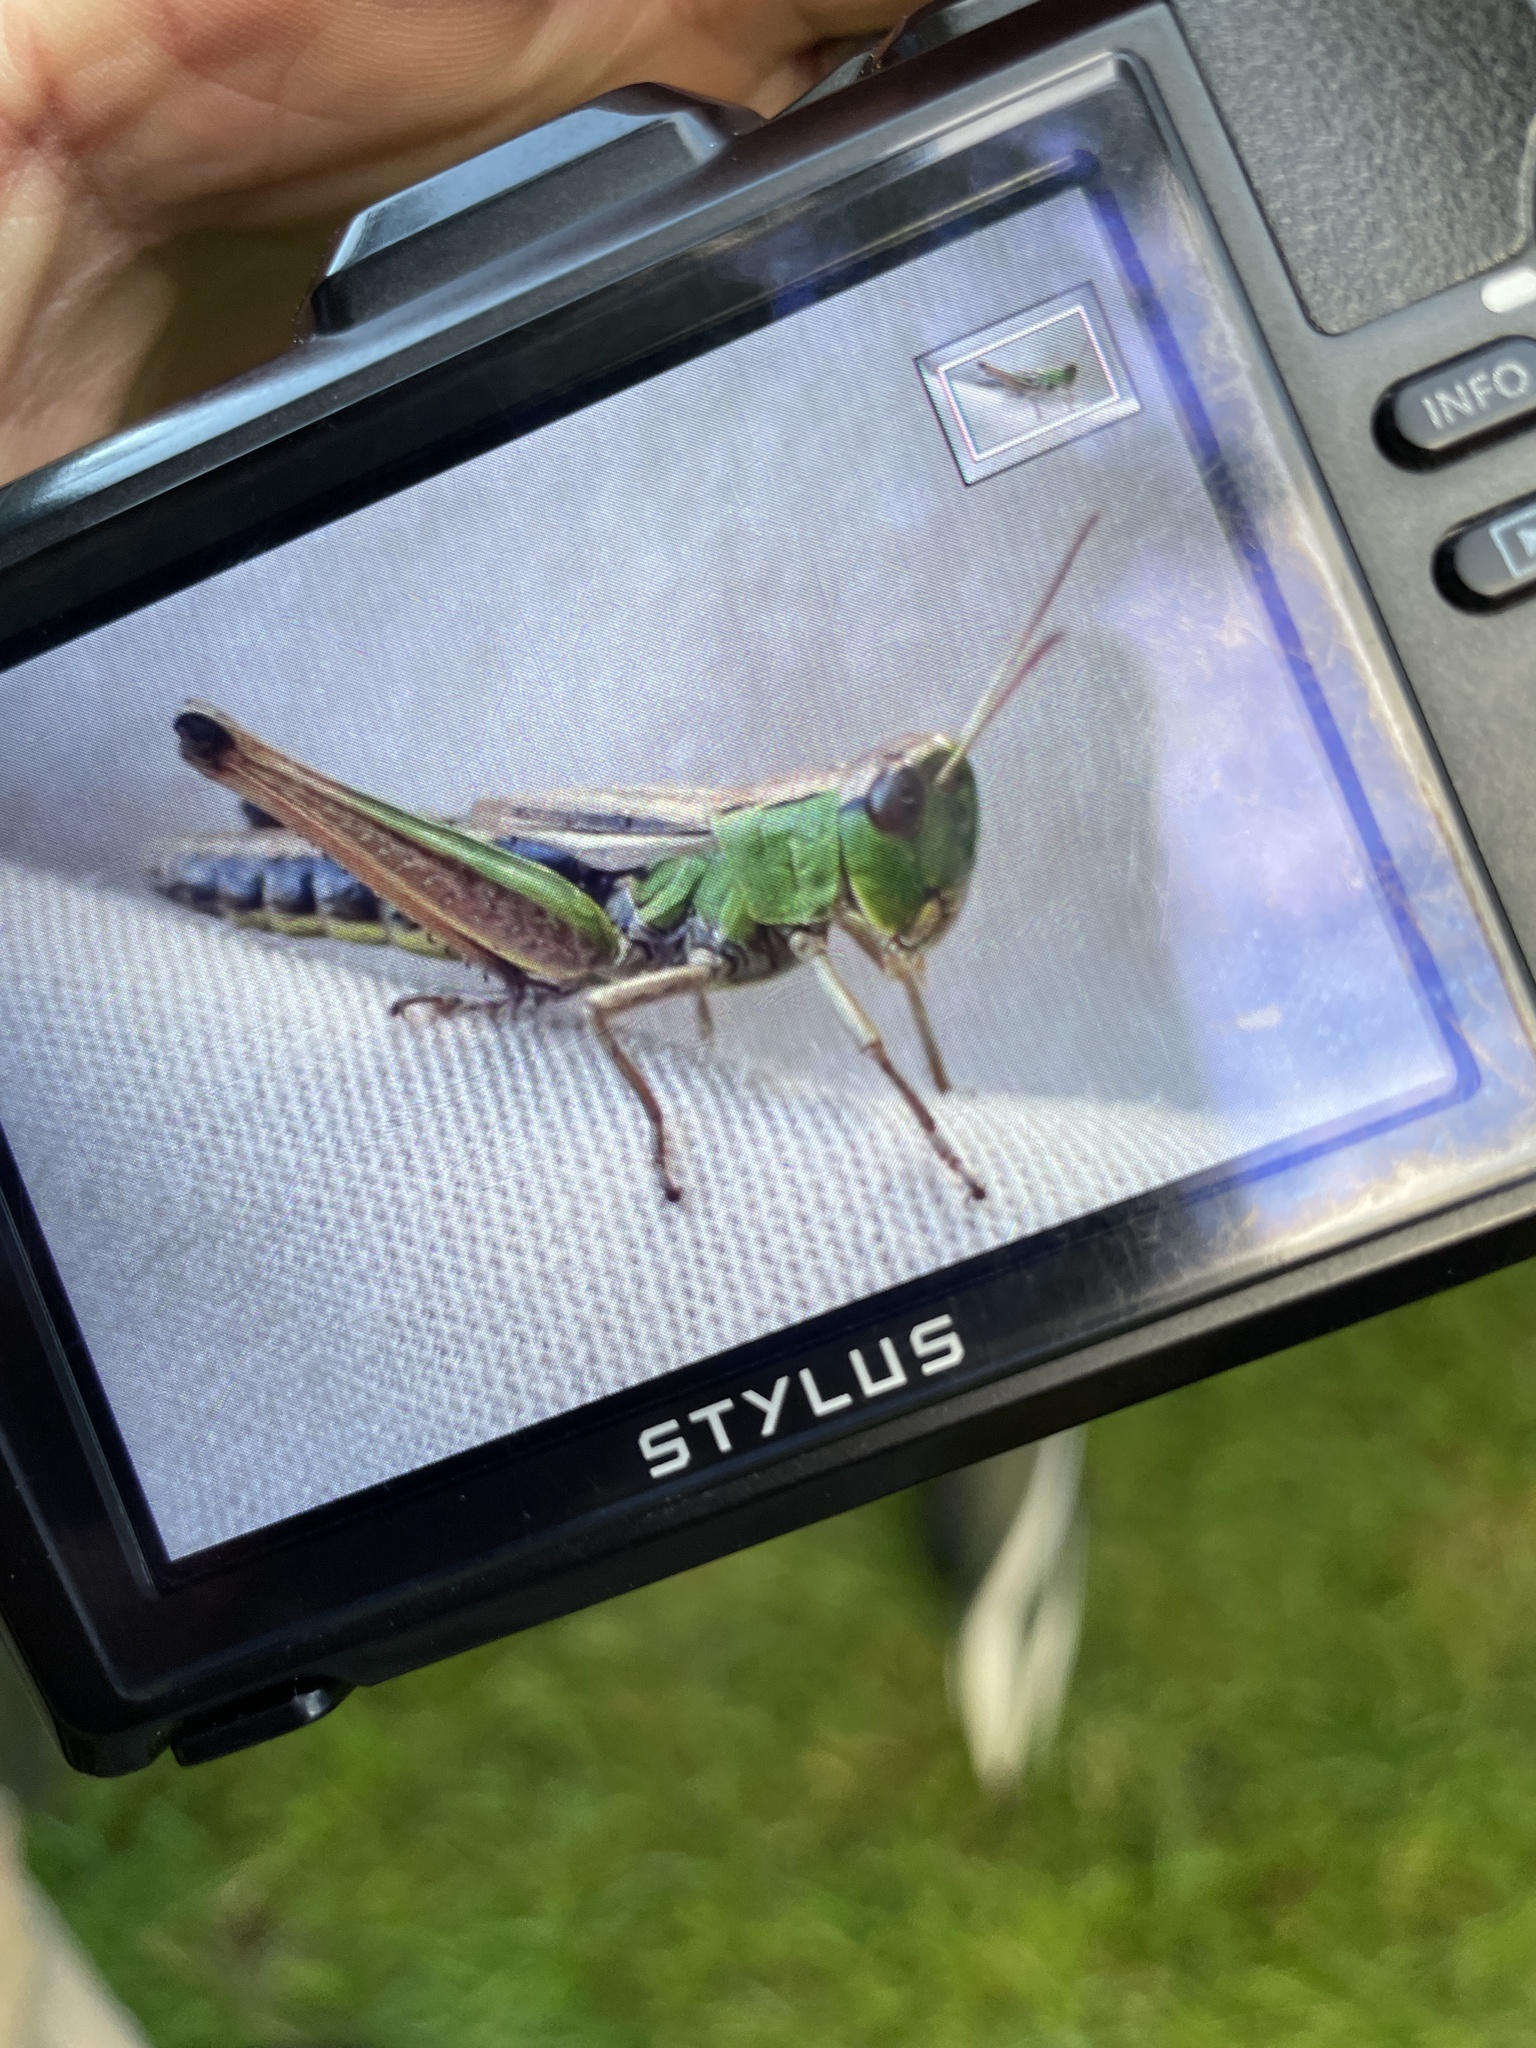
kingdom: Animalia
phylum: Arthropoda
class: Insecta
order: Orthoptera
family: Acrididae
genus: Pseudochorthippus
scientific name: Pseudochorthippus parallelus
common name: Meadow grasshopper
